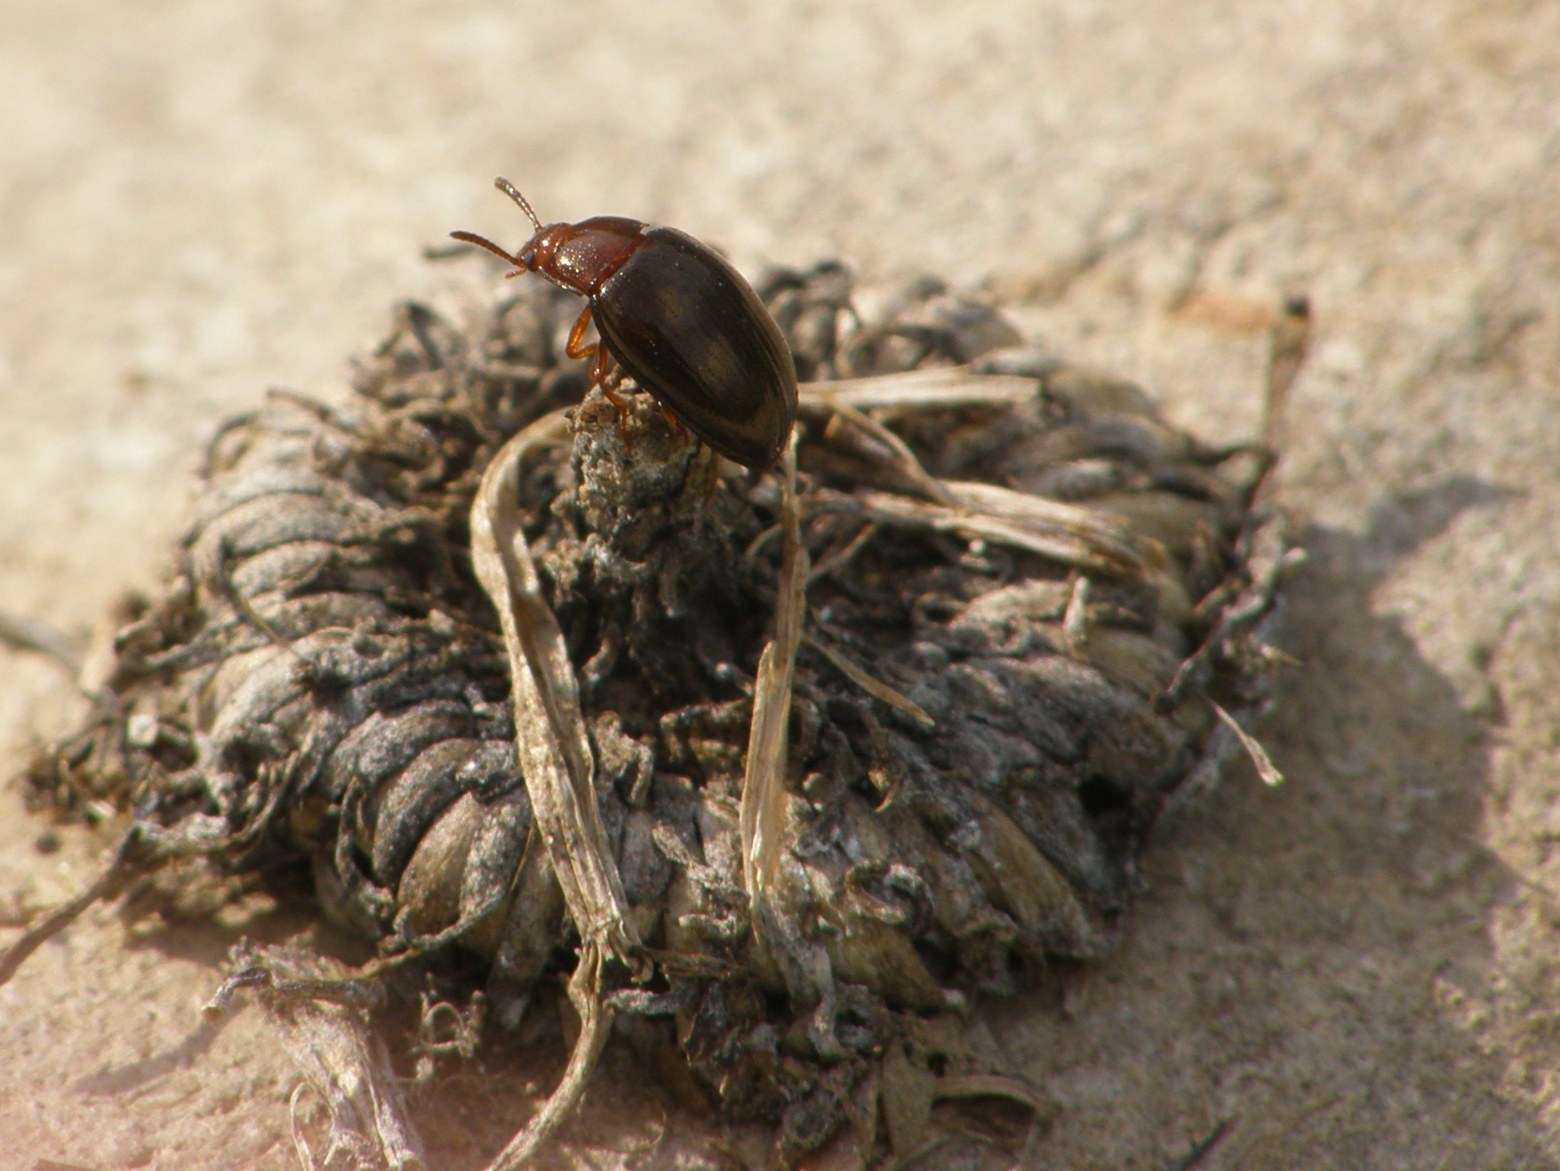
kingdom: Animalia
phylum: Arthropoda
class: Insecta
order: Coleoptera
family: Tenebrionidae
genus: Blapstinus
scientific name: Blapstinus metallicus
